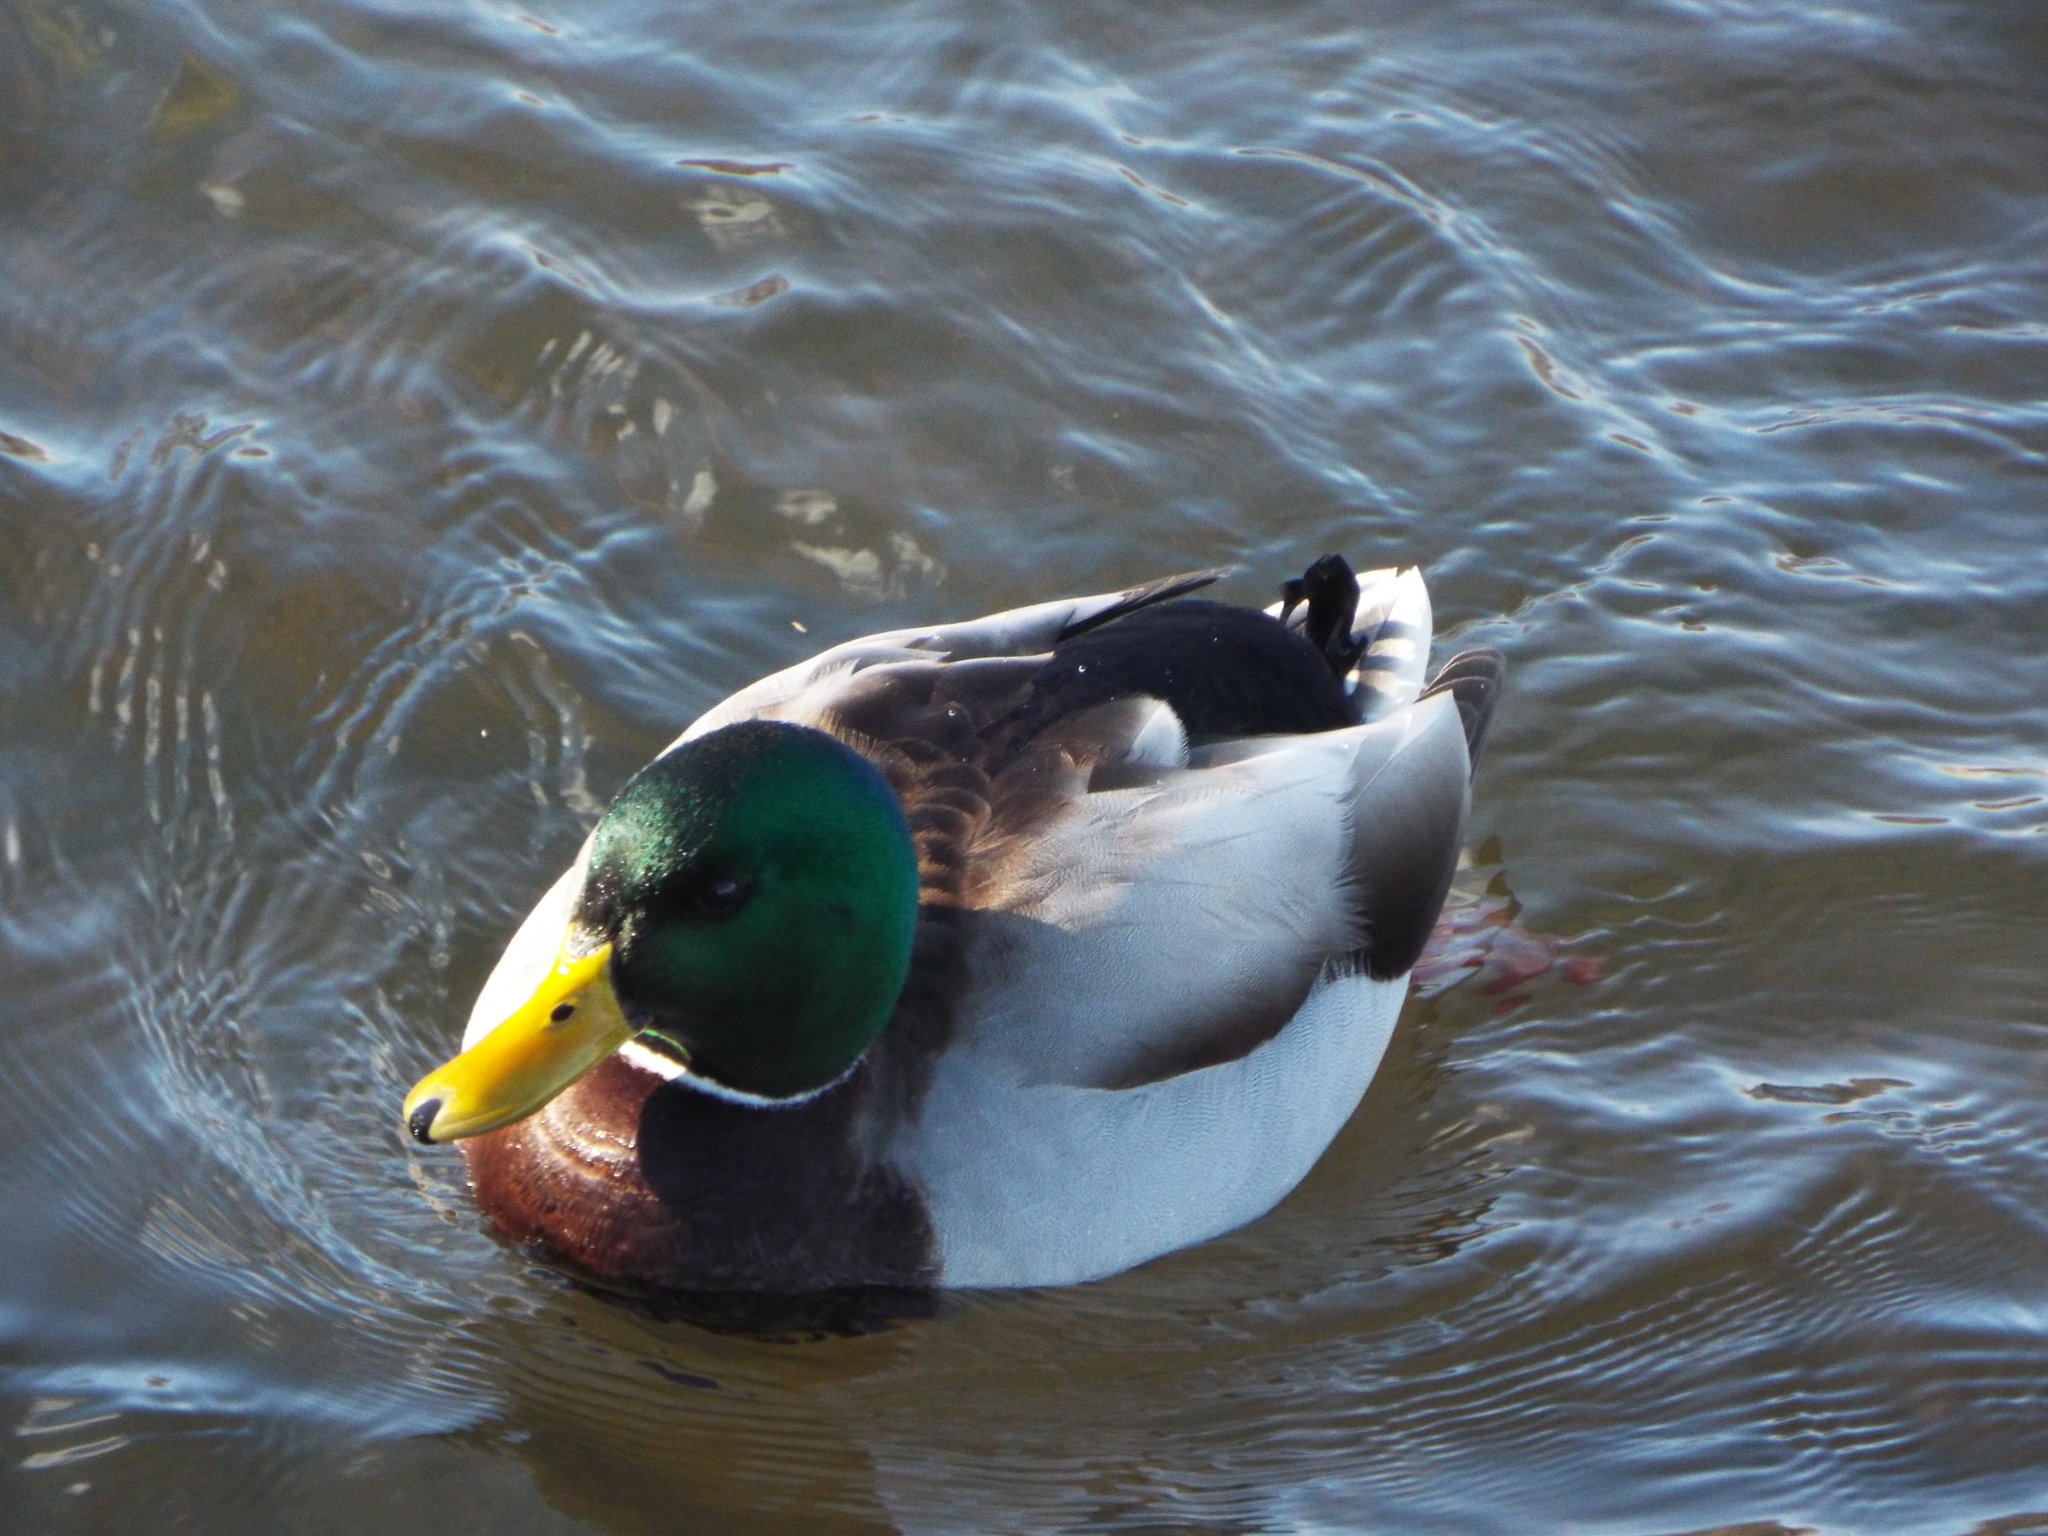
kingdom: Animalia
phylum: Chordata
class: Aves
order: Anseriformes
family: Anatidae
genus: Anas
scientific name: Anas platyrhynchos
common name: Mallard
